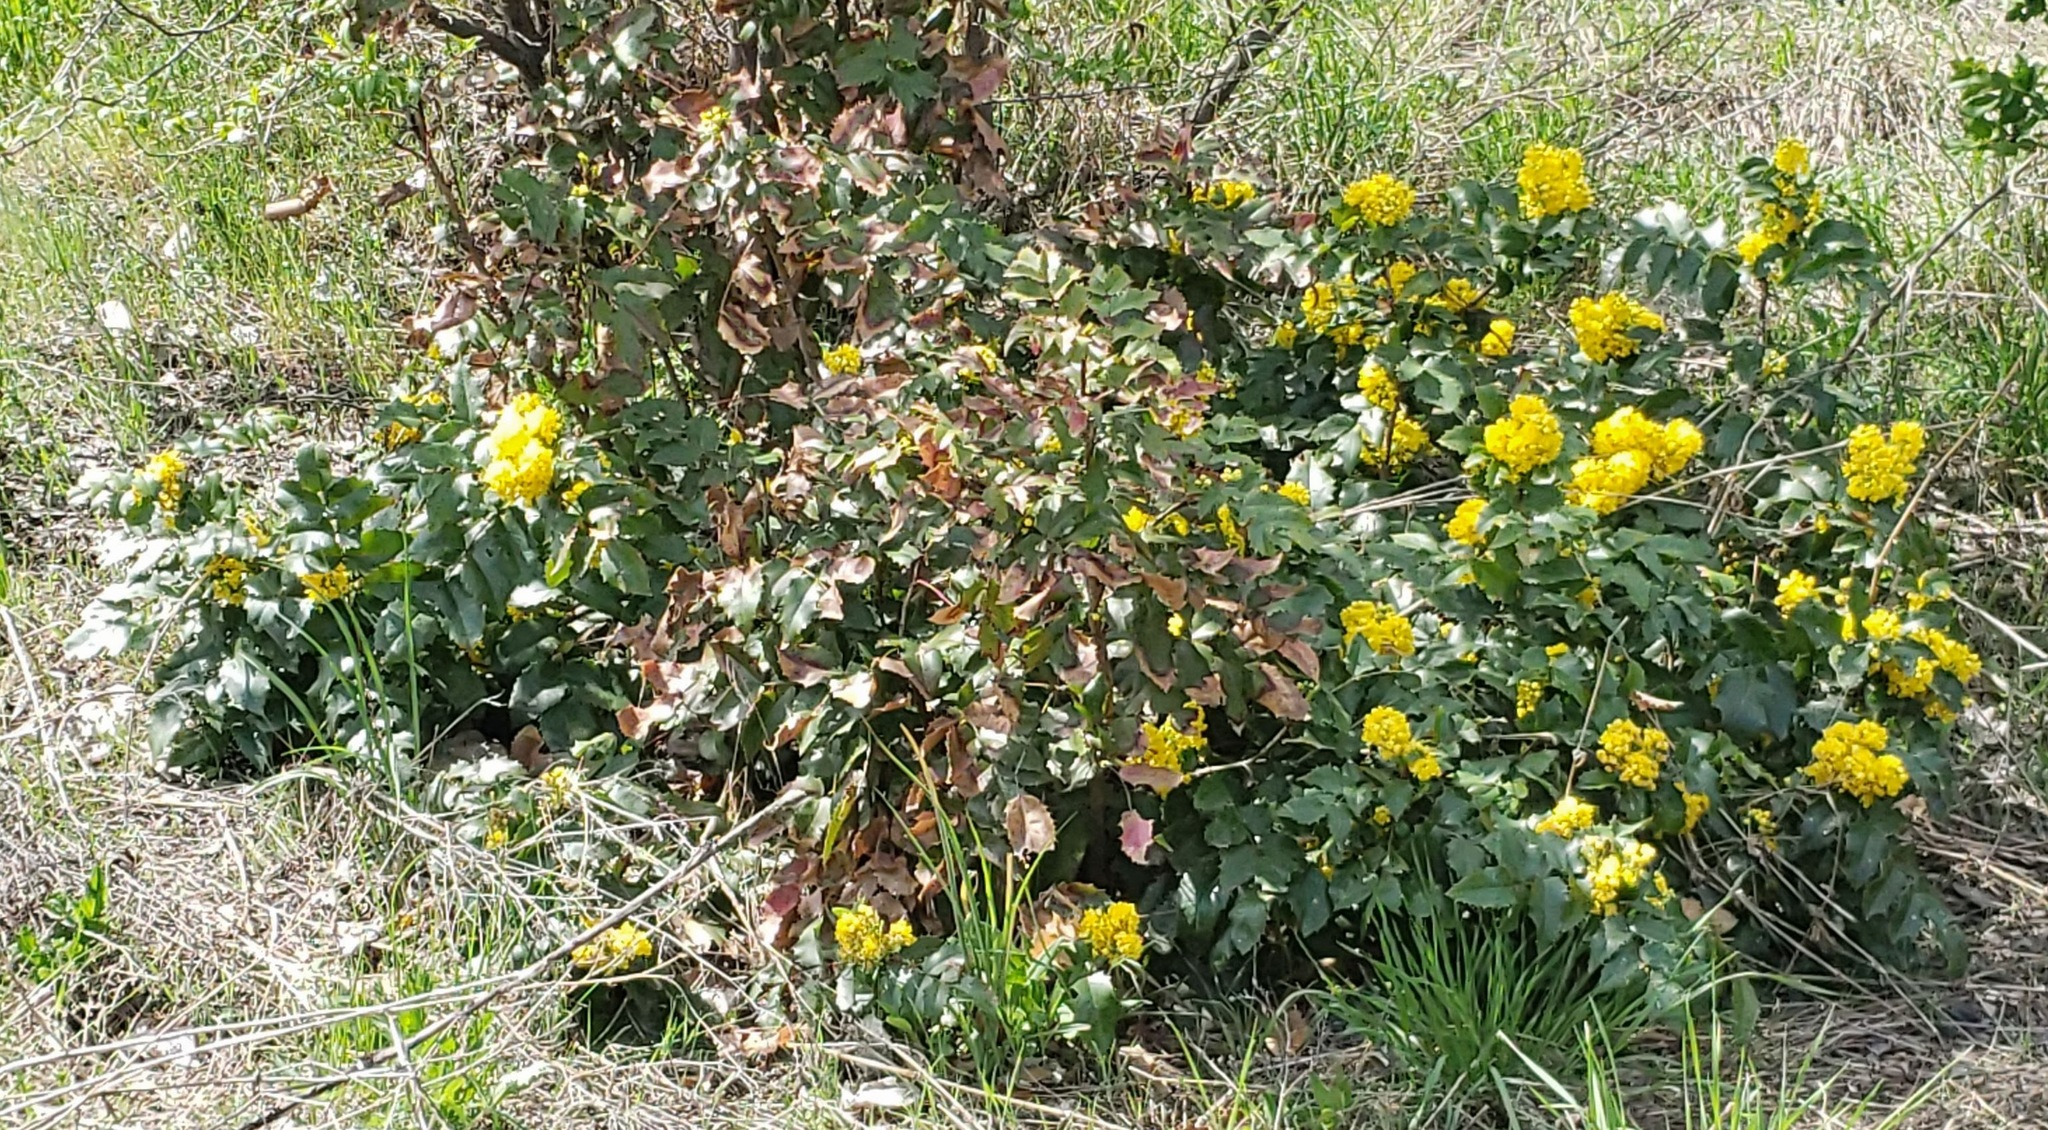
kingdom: Plantae
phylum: Tracheophyta
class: Magnoliopsida
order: Ranunculales
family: Berberidaceae
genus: Mahonia
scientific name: Mahonia aquifolium
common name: Oregon-grape
